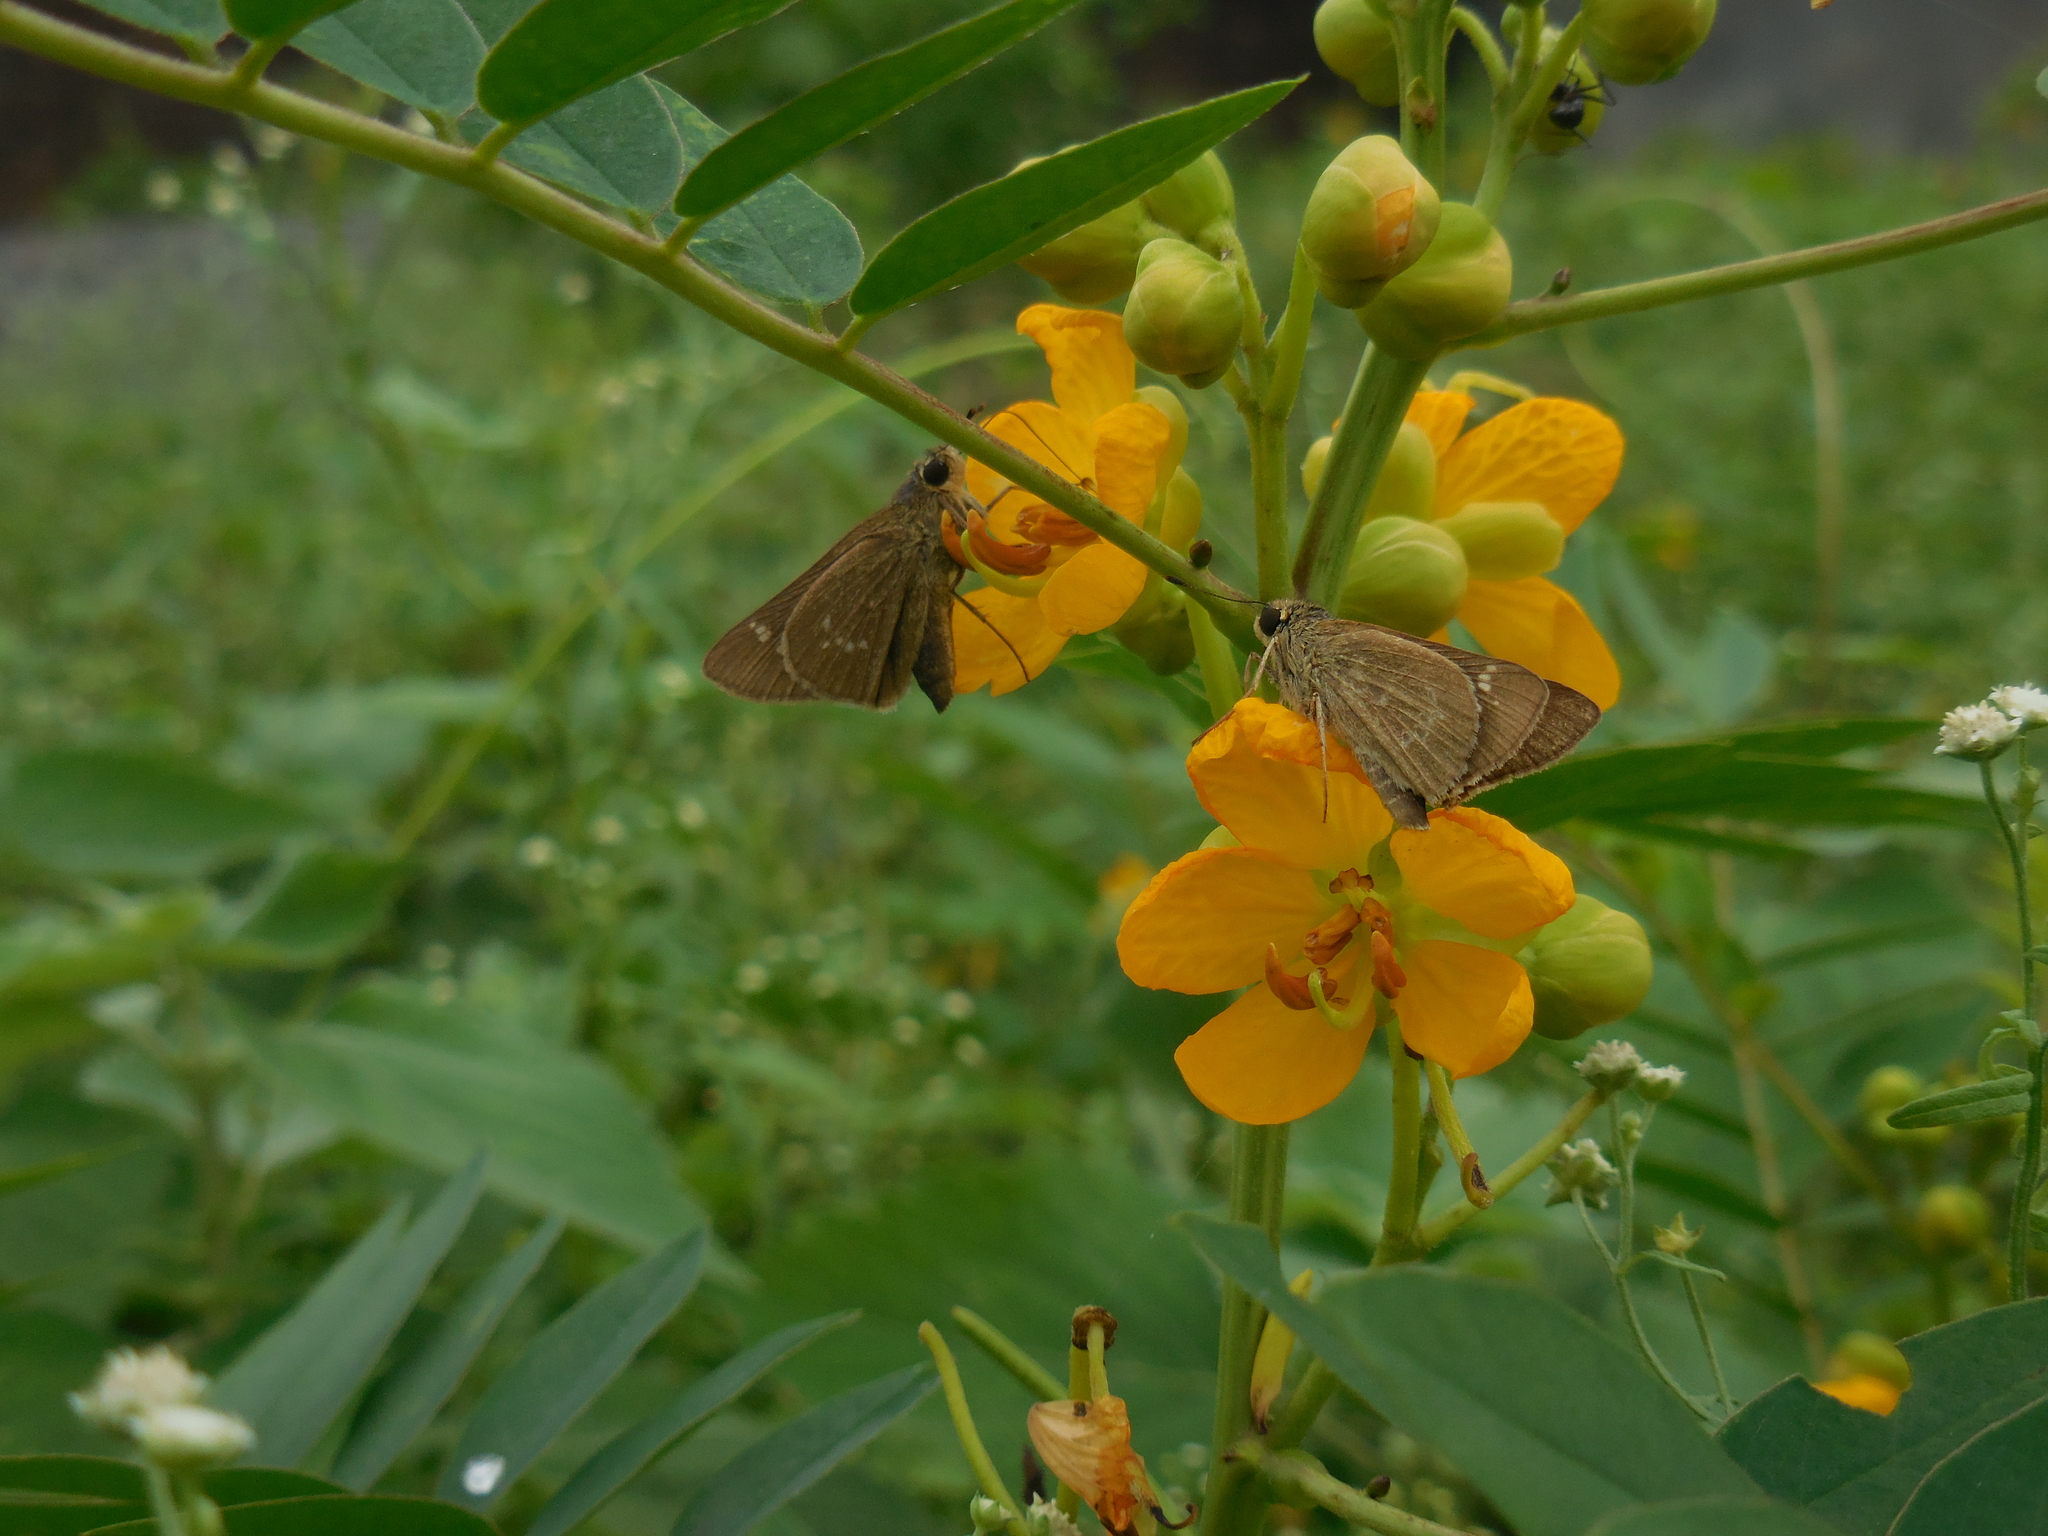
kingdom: Animalia
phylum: Arthropoda
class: Insecta
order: Lepidoptera
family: Hesperiidae
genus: Pelopidas
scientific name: Pelopidas mathias
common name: Black-branded swift
